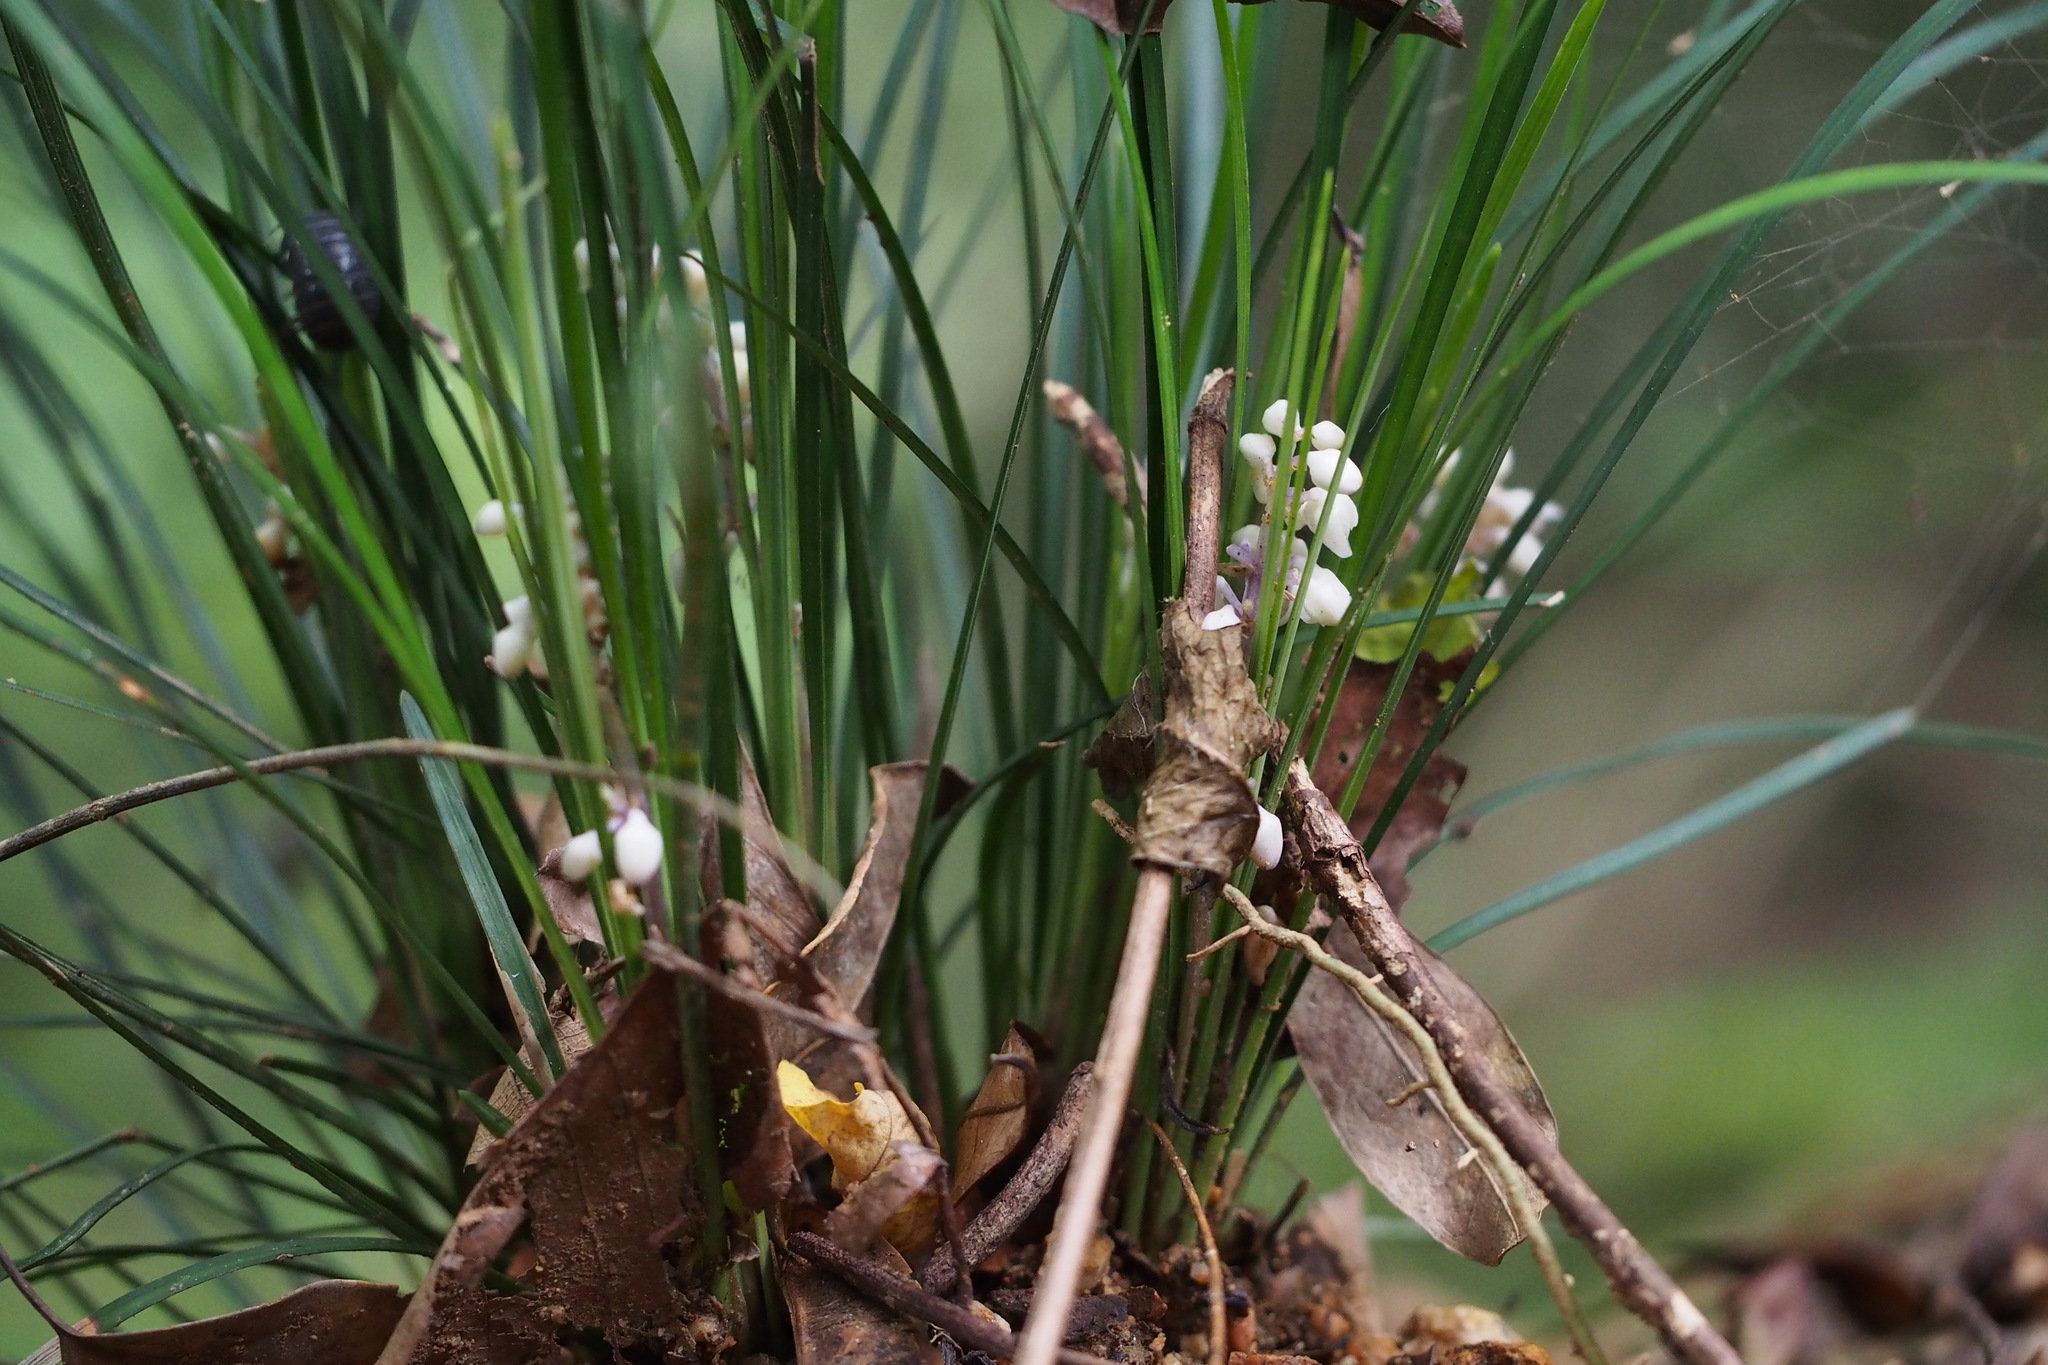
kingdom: Plantae
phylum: Tracheophyta
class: Liliopsida
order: Asparagales
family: Asparagaceae
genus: Ophiopogon
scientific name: Ophiopogon japonicus
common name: Dwarf lilyturf
